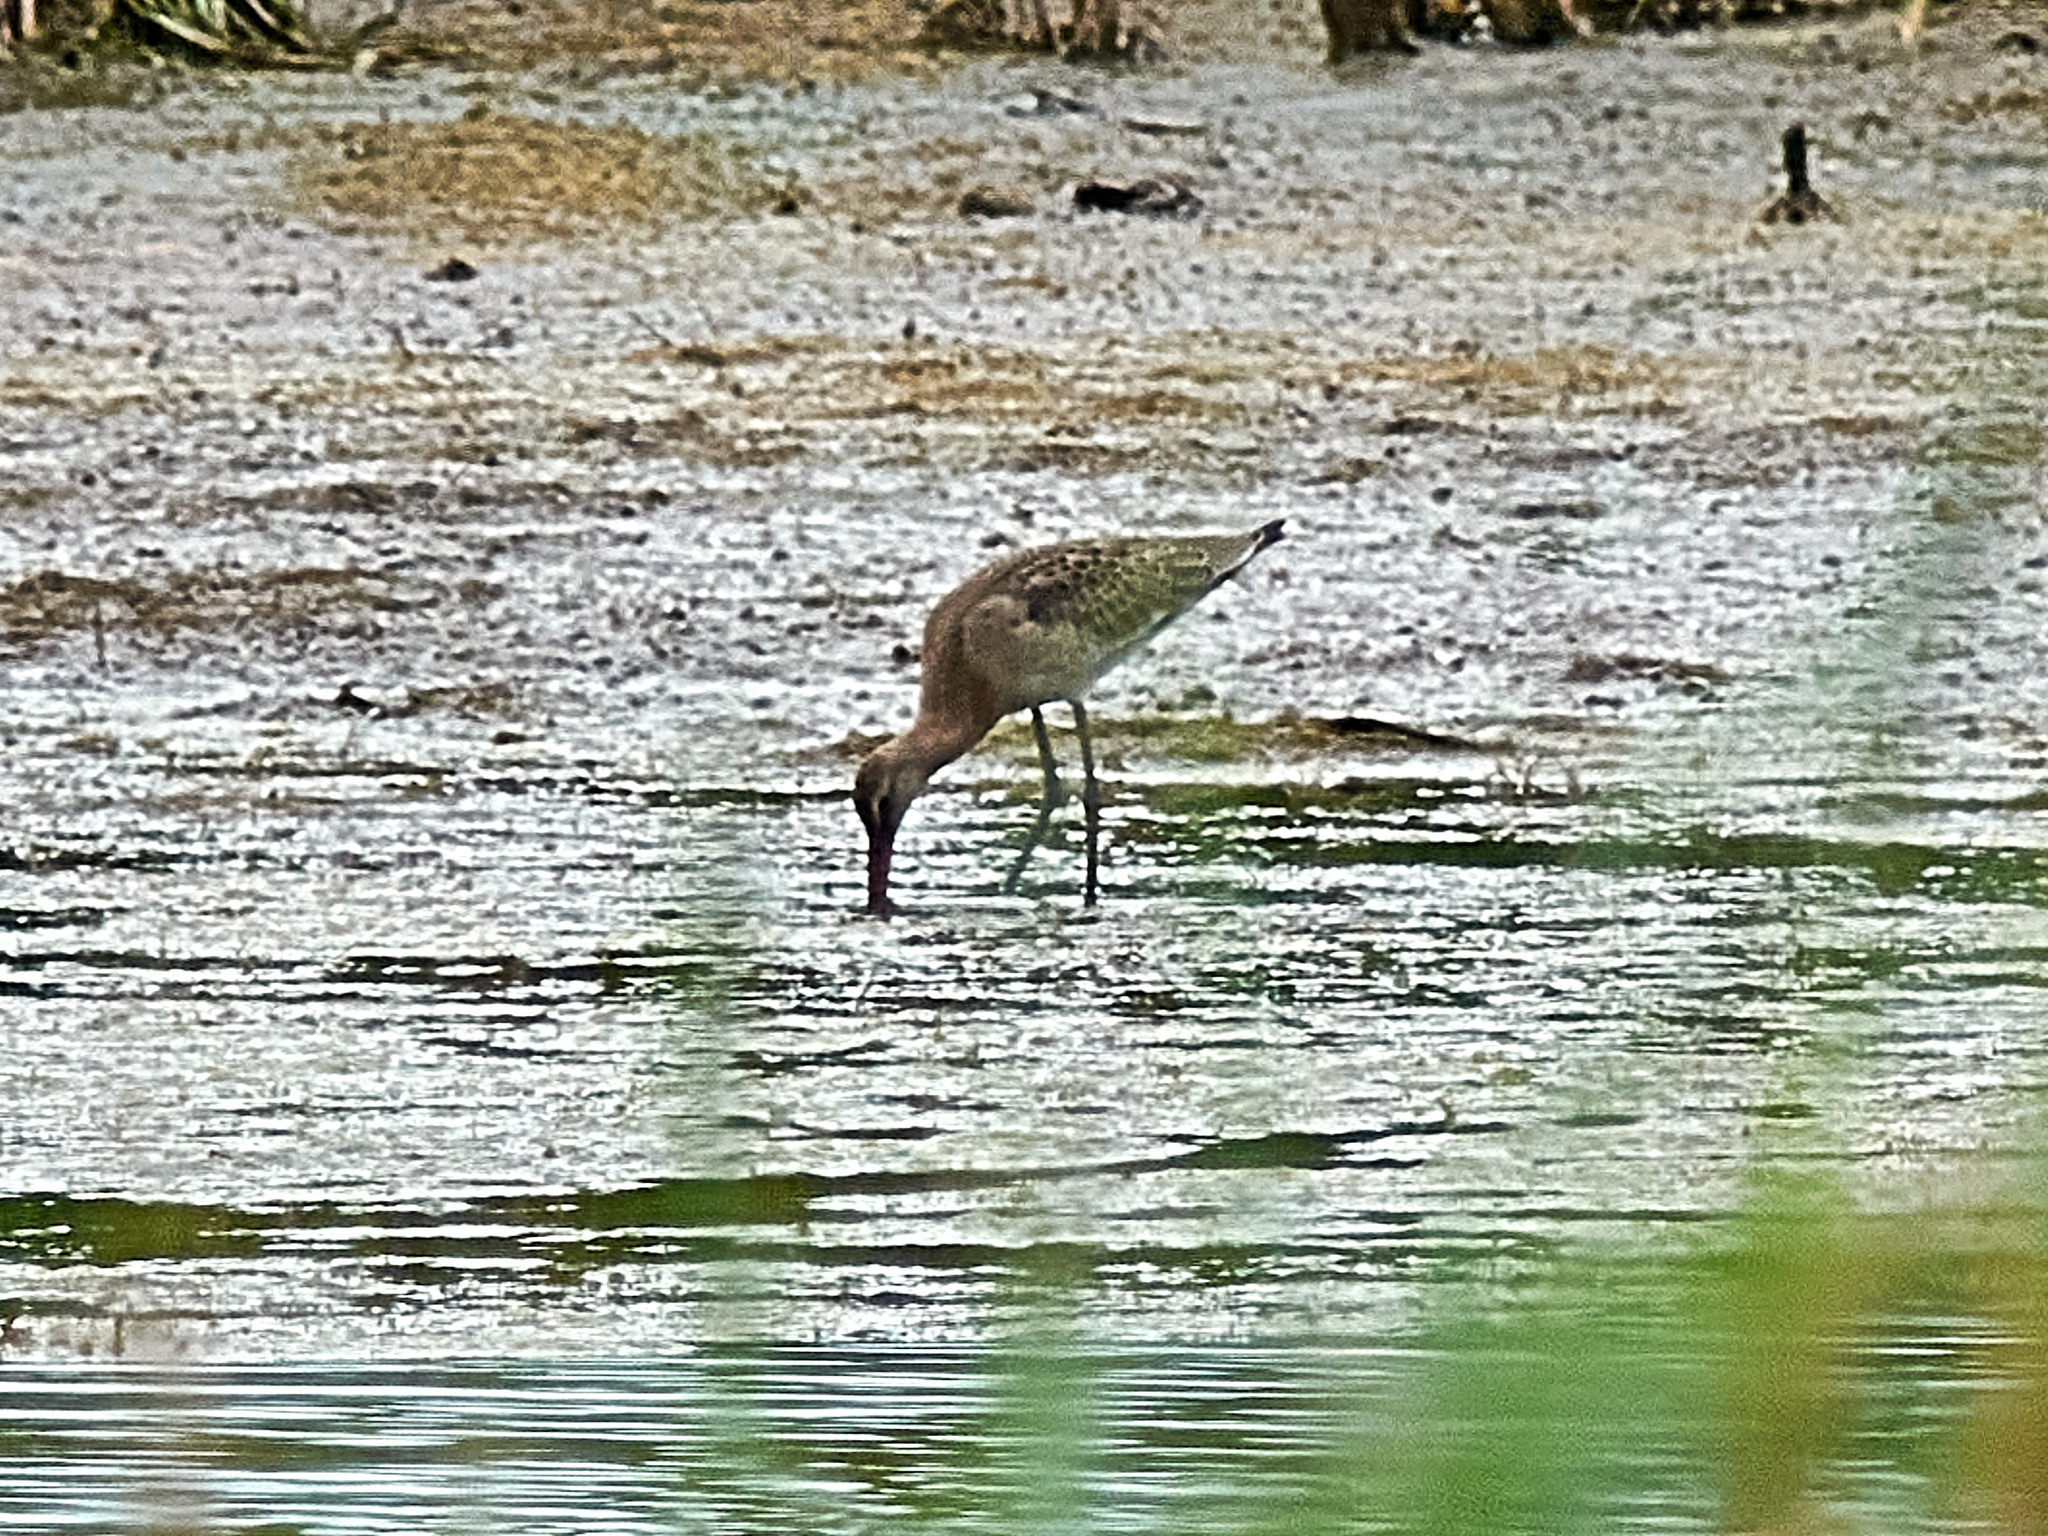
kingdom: Animalia
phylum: Chordata
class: Aves
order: Charadriiformes
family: Scolopacidae
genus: Limosa
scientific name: Limosa limosa
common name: Black-tailed godwit
